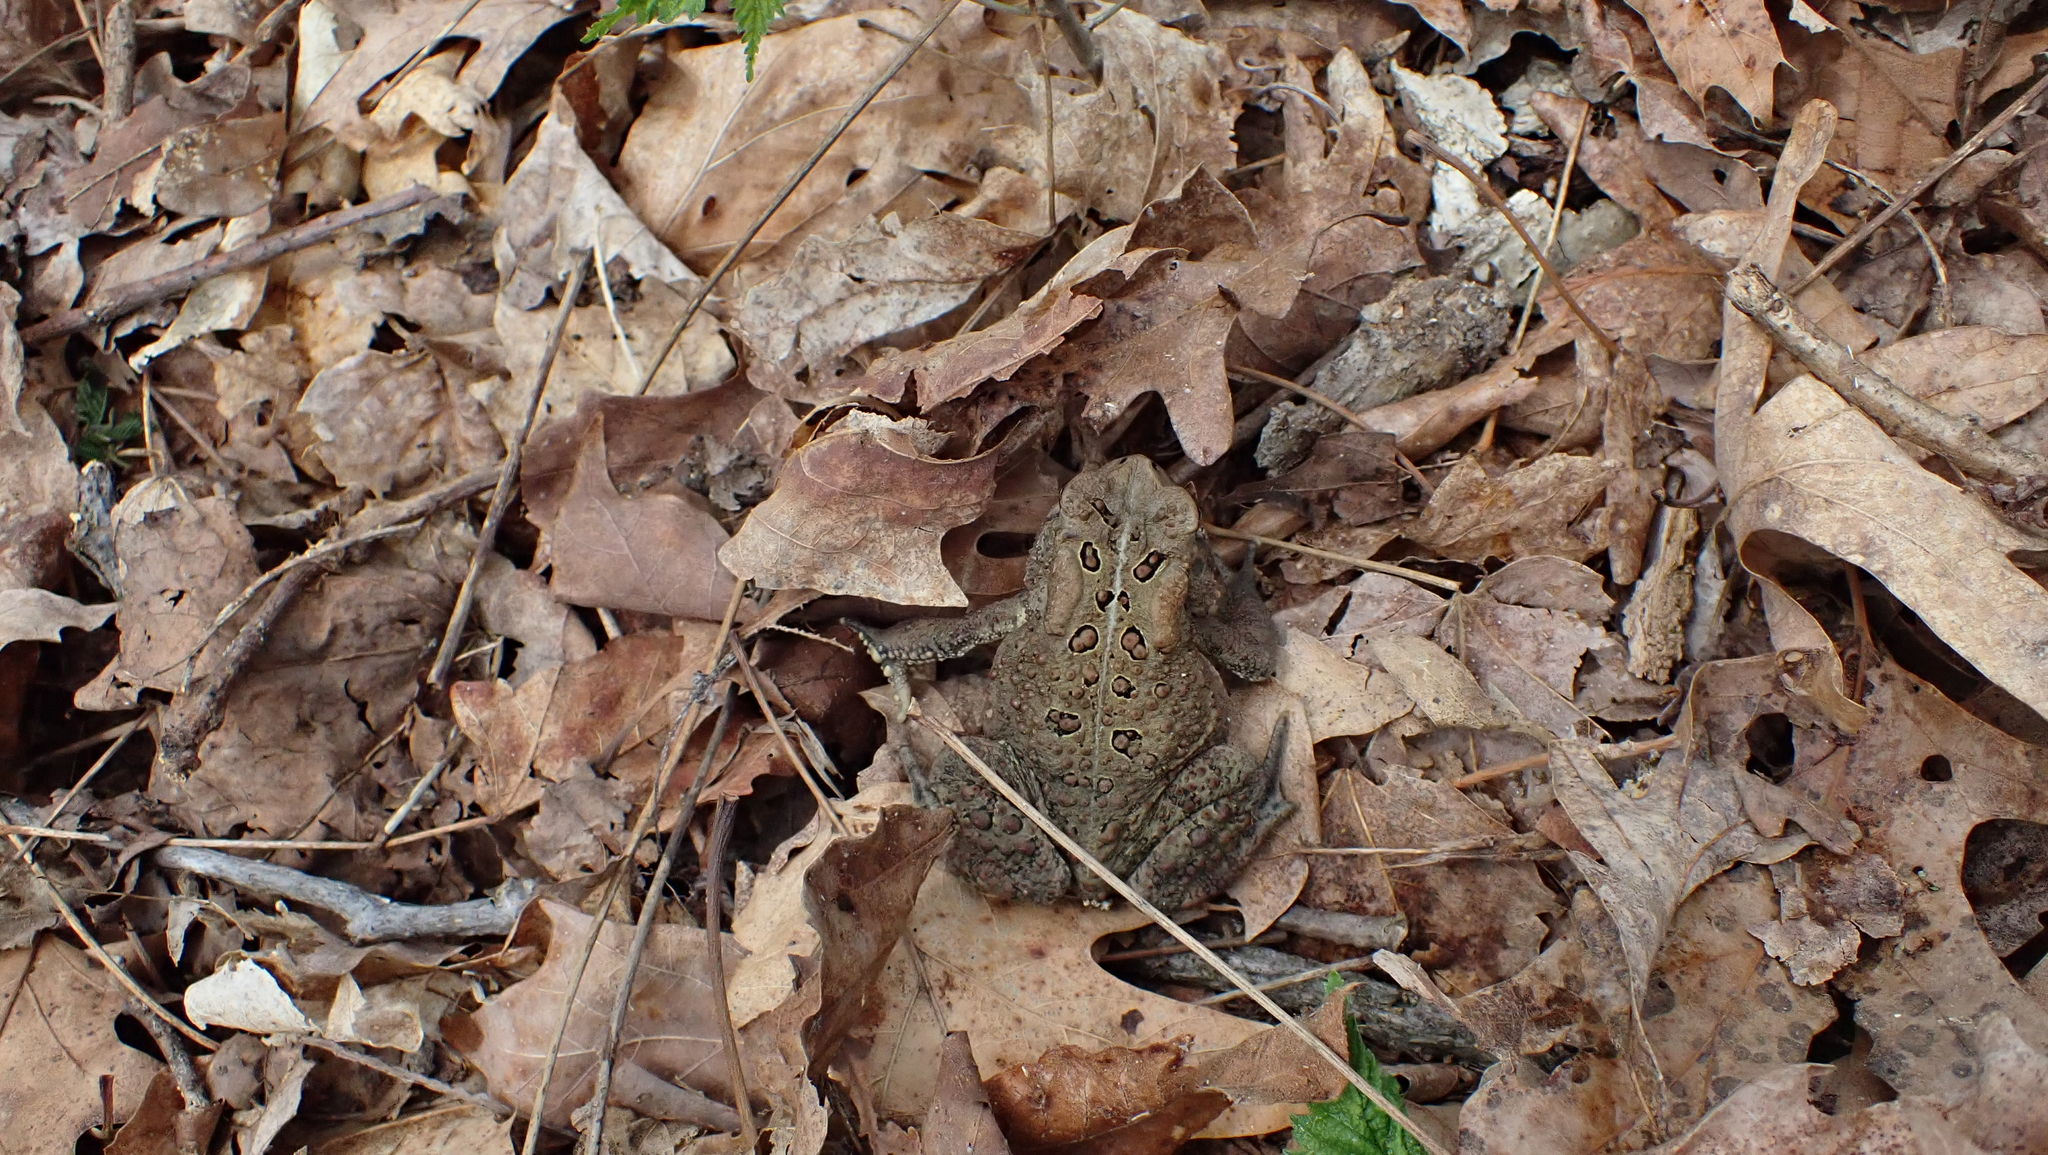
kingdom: Animalia
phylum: Chordata
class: Amphibia
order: Anura
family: Bufonidae
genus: Anaxyrus
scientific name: Anaxyrus americanus
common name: American toad
